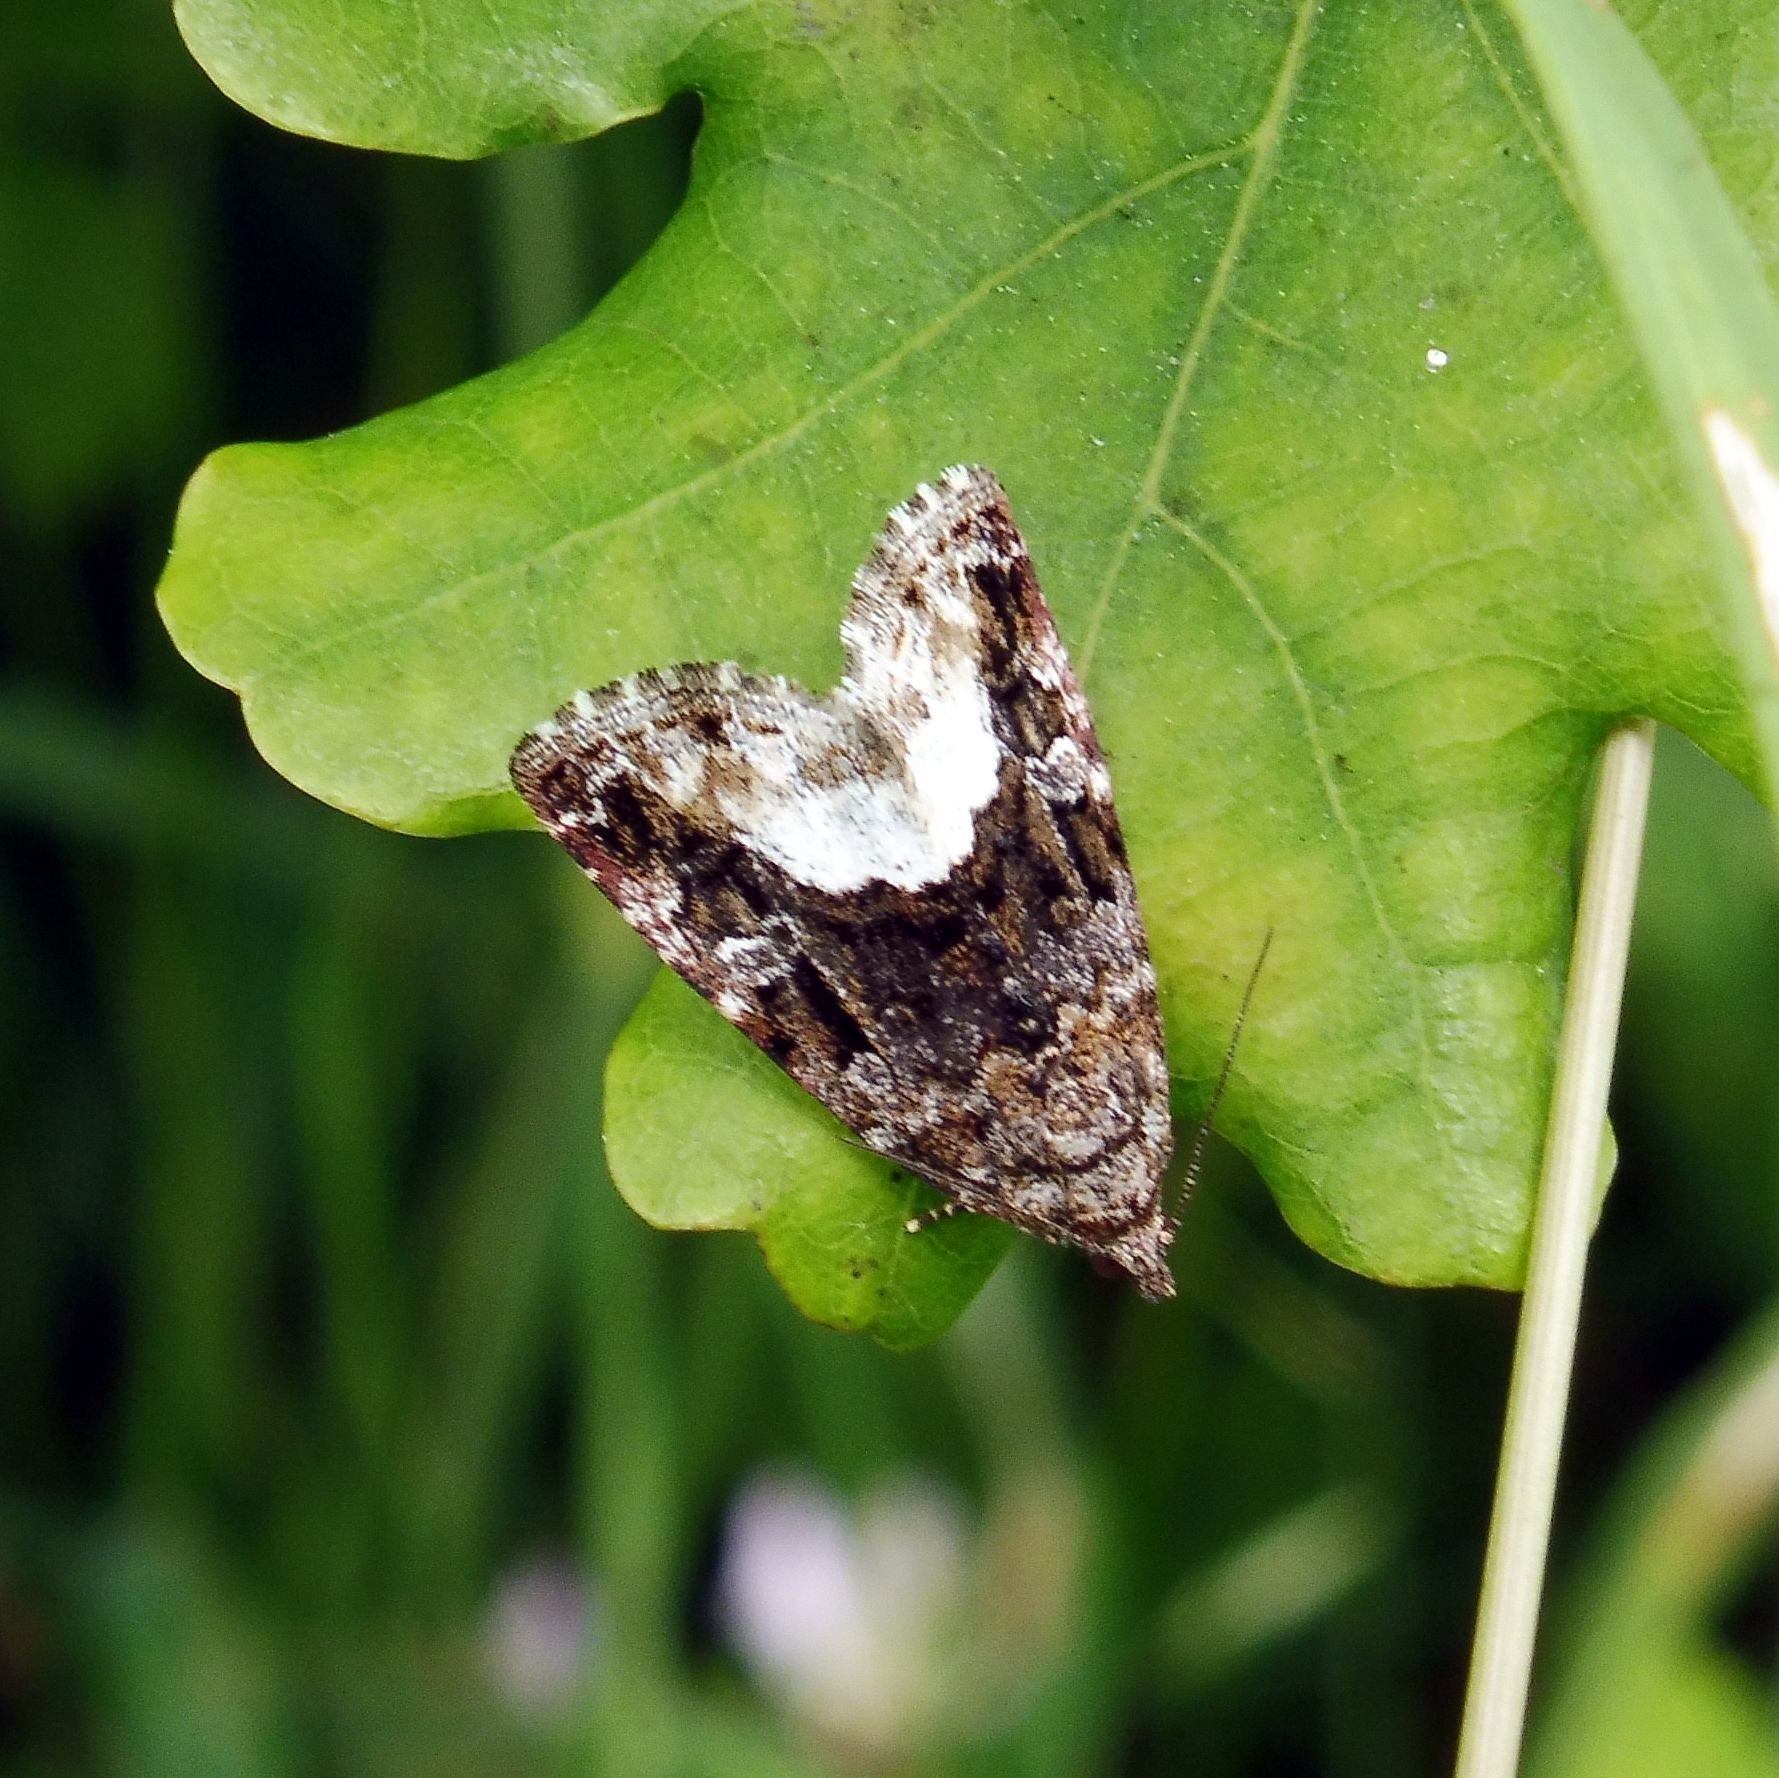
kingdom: Animalia
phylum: Arthropoda
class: Insecta
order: Lepidoptera
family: Noctuidae
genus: Deltote
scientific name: Deltote pygarga
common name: Marbled white spot
